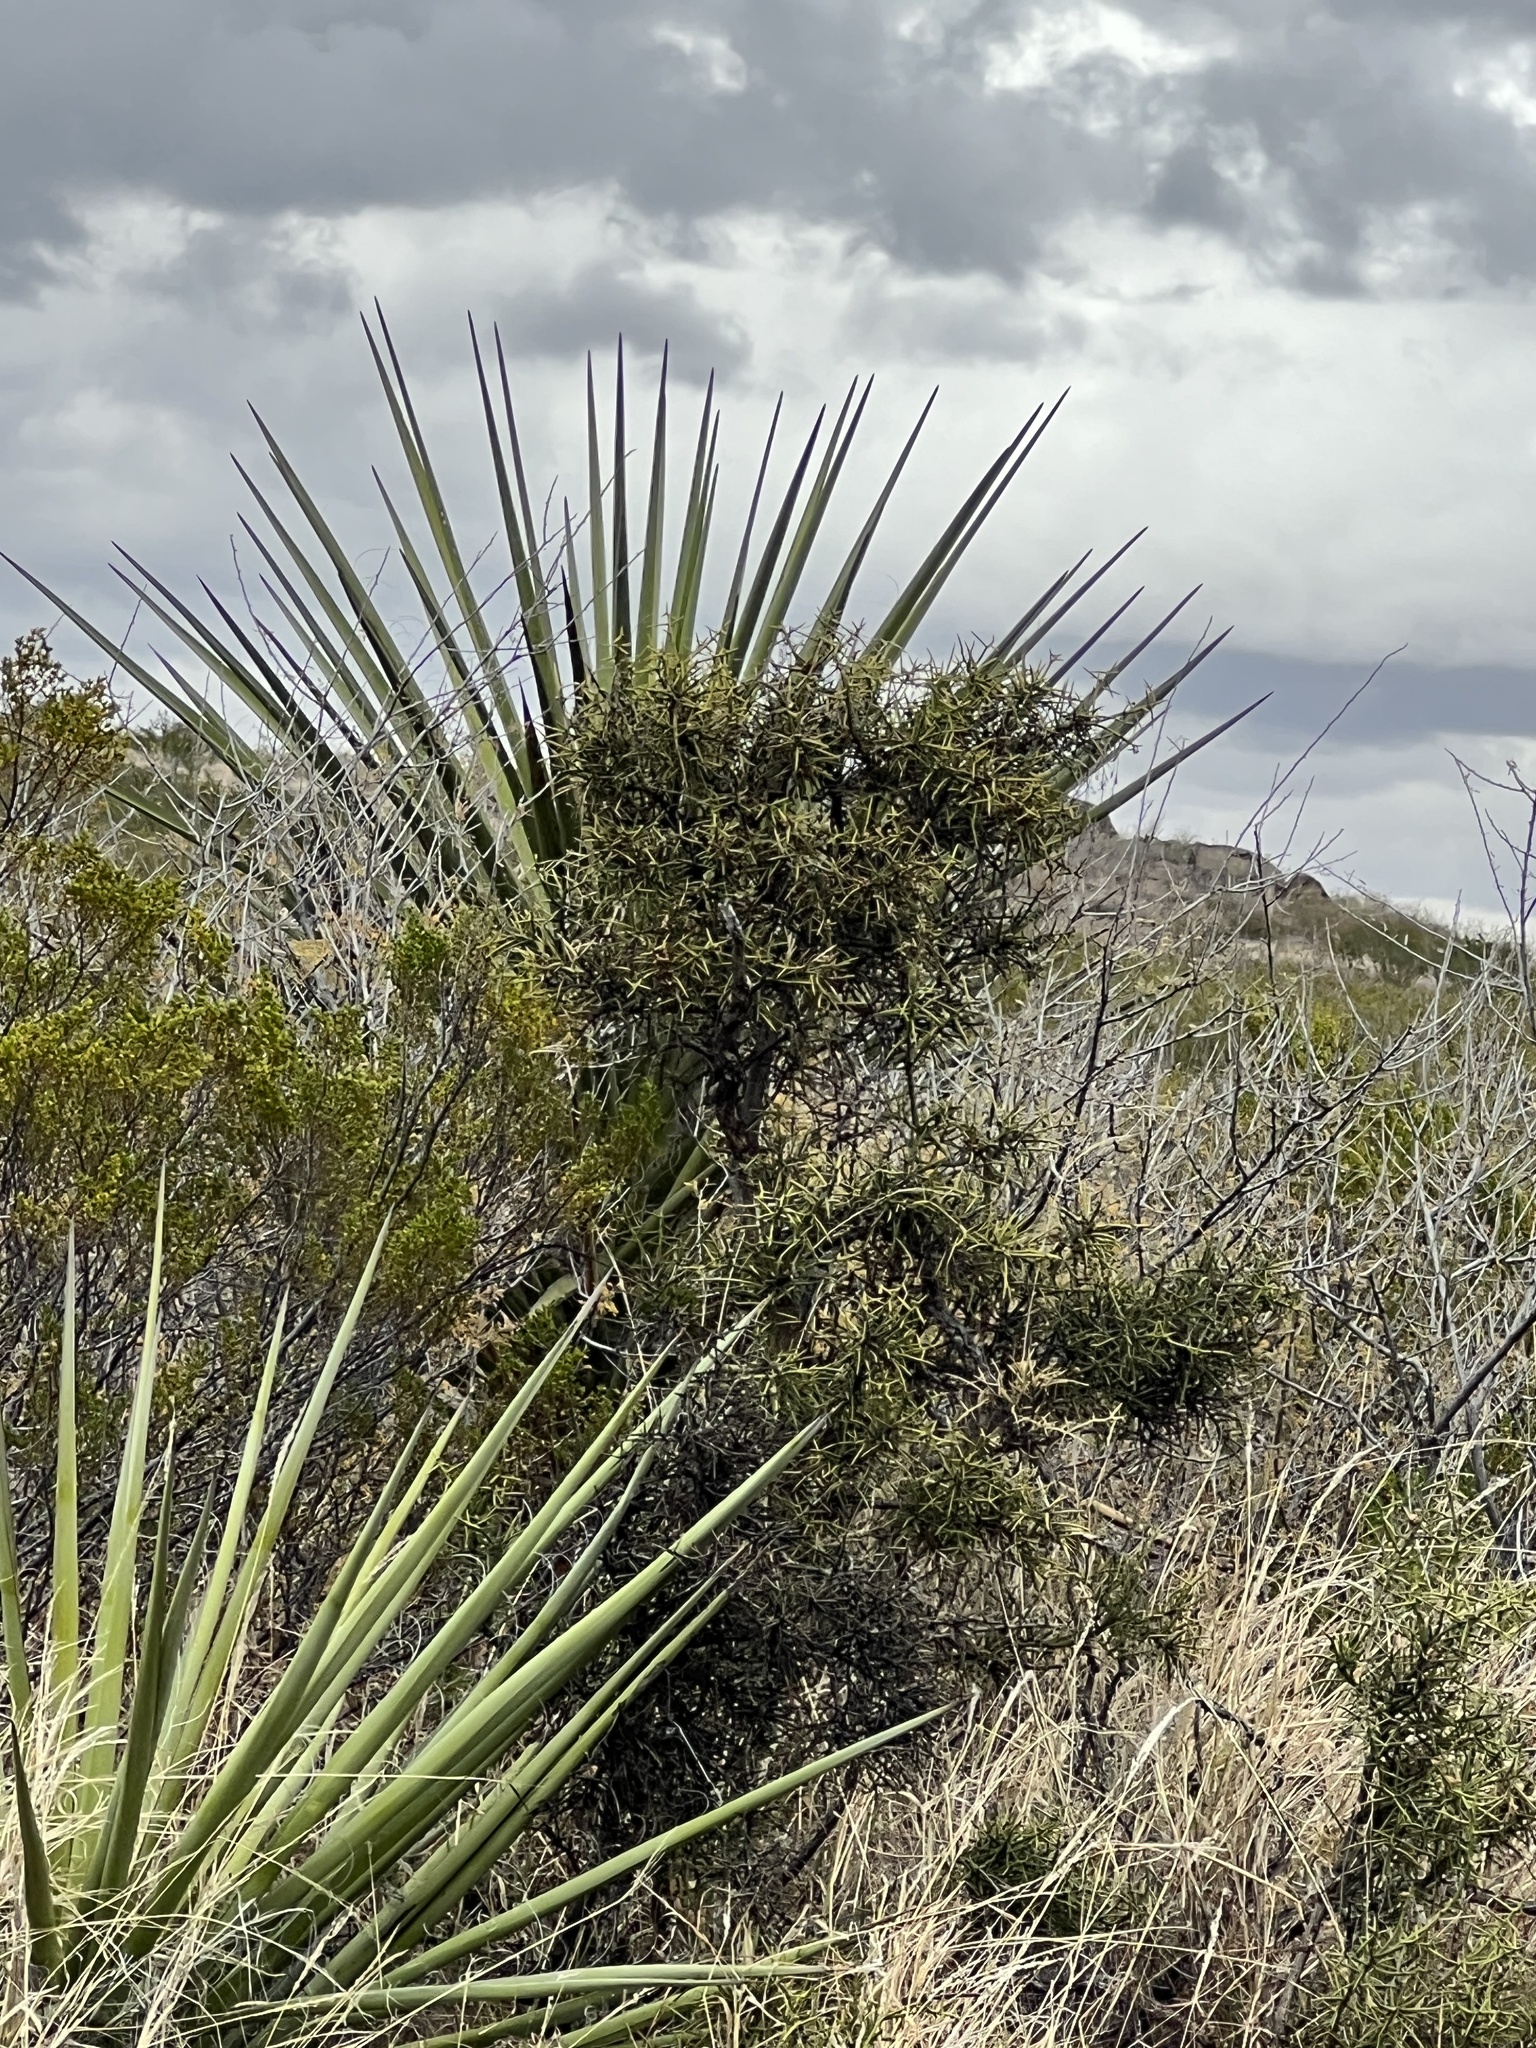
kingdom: Plantae
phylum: Tracheophyta
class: Magnoliopsida
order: Brassicales
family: Koeberliniaceae
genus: Koeberlinia
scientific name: Koeberlinia spinosa
